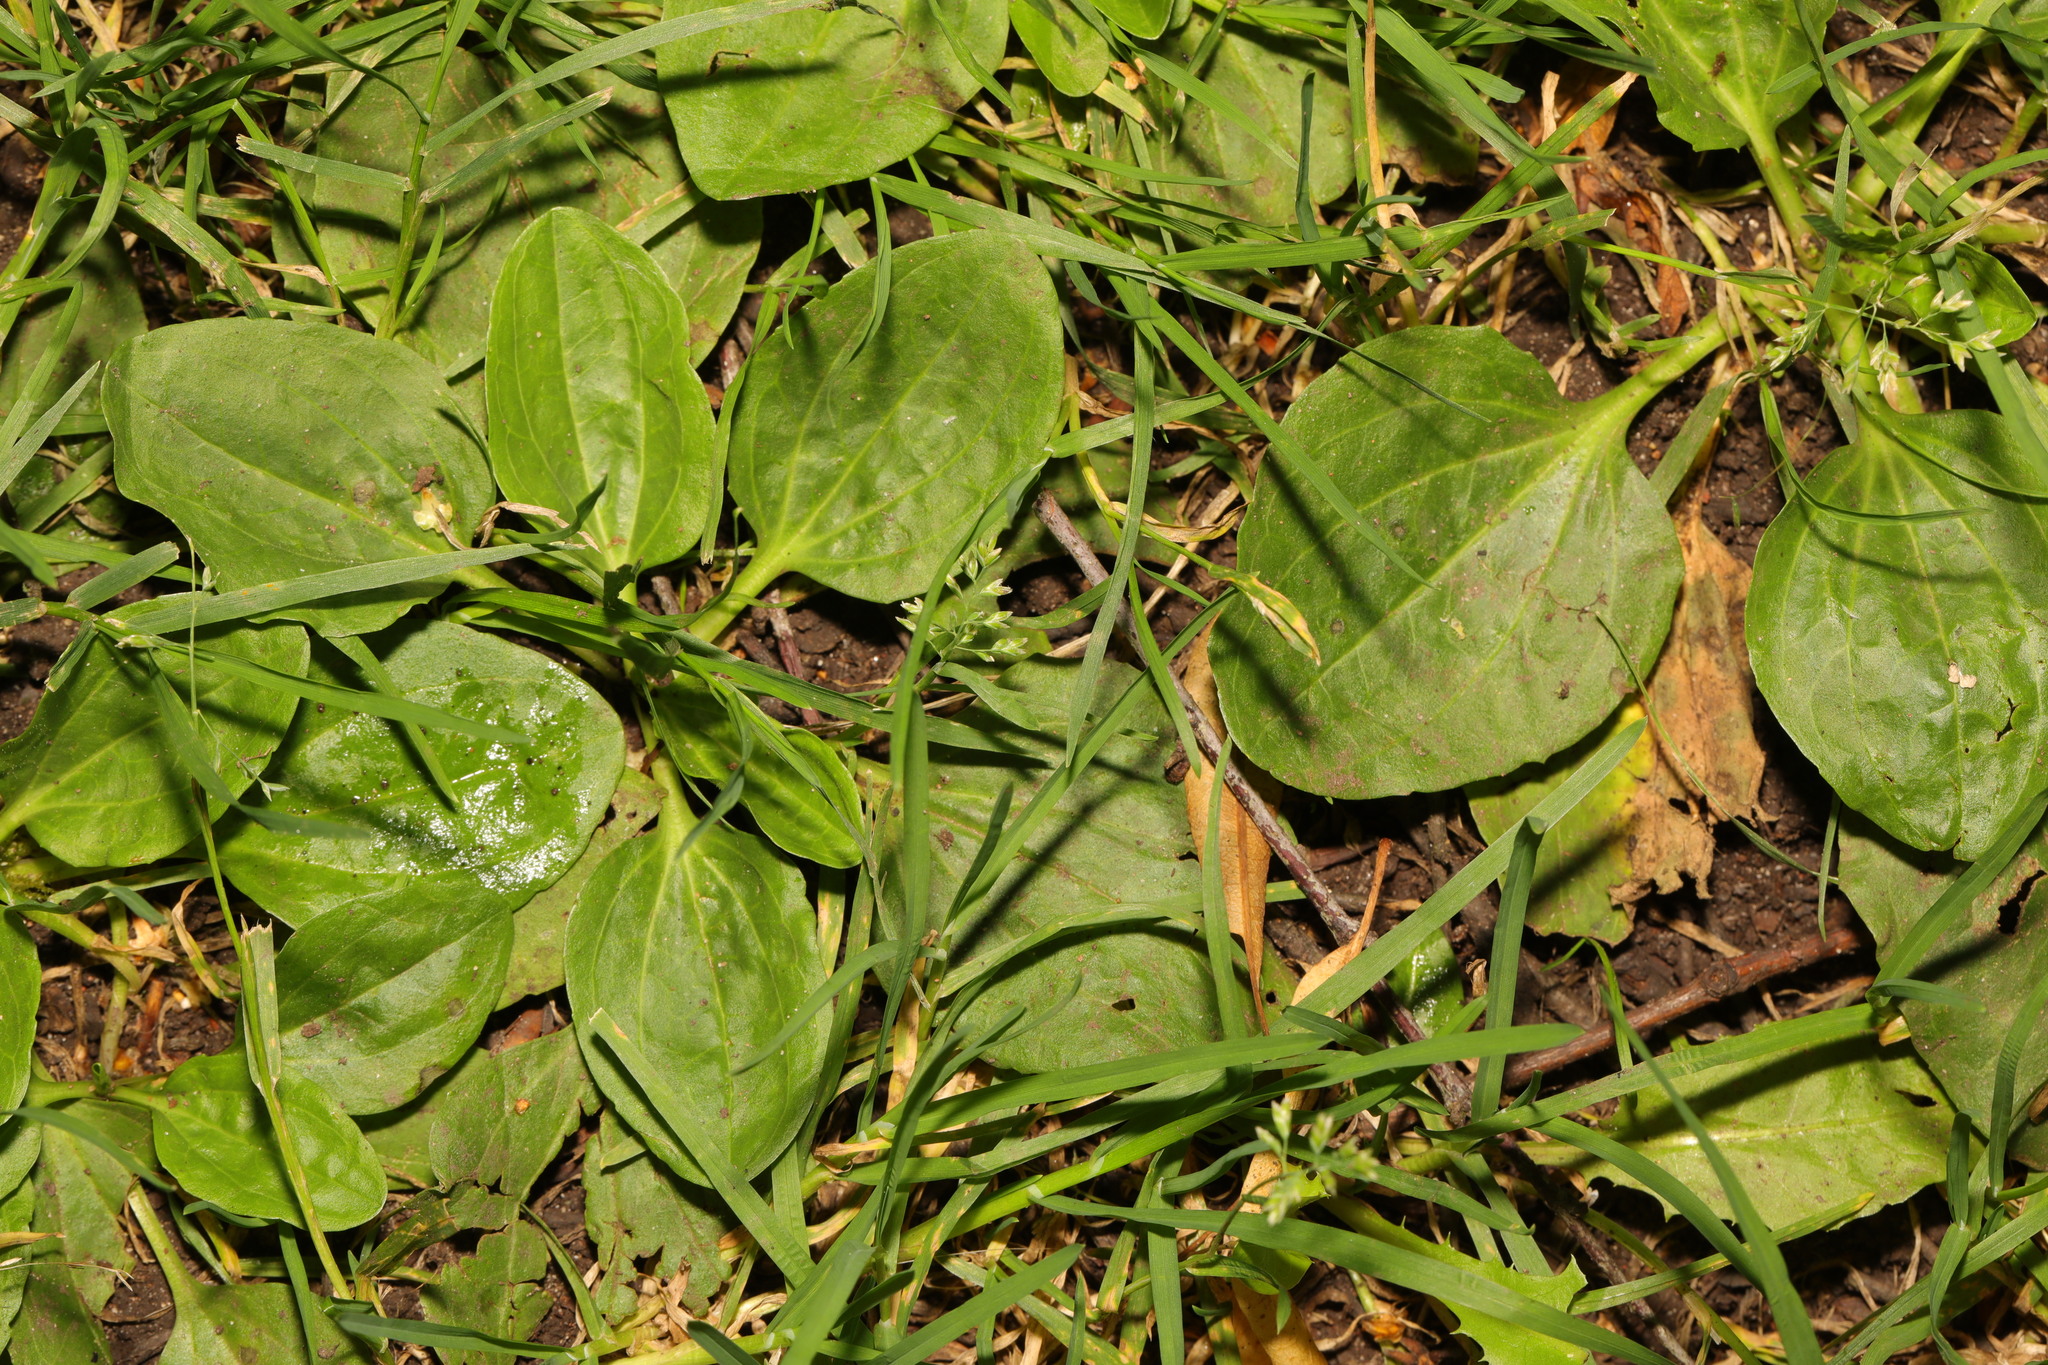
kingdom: Plantae
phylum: Tracheophyta
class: Magnoliopsida
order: Lamiales
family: Plantaginaceae
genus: Plantago
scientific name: Plantago major
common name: Common plantain
